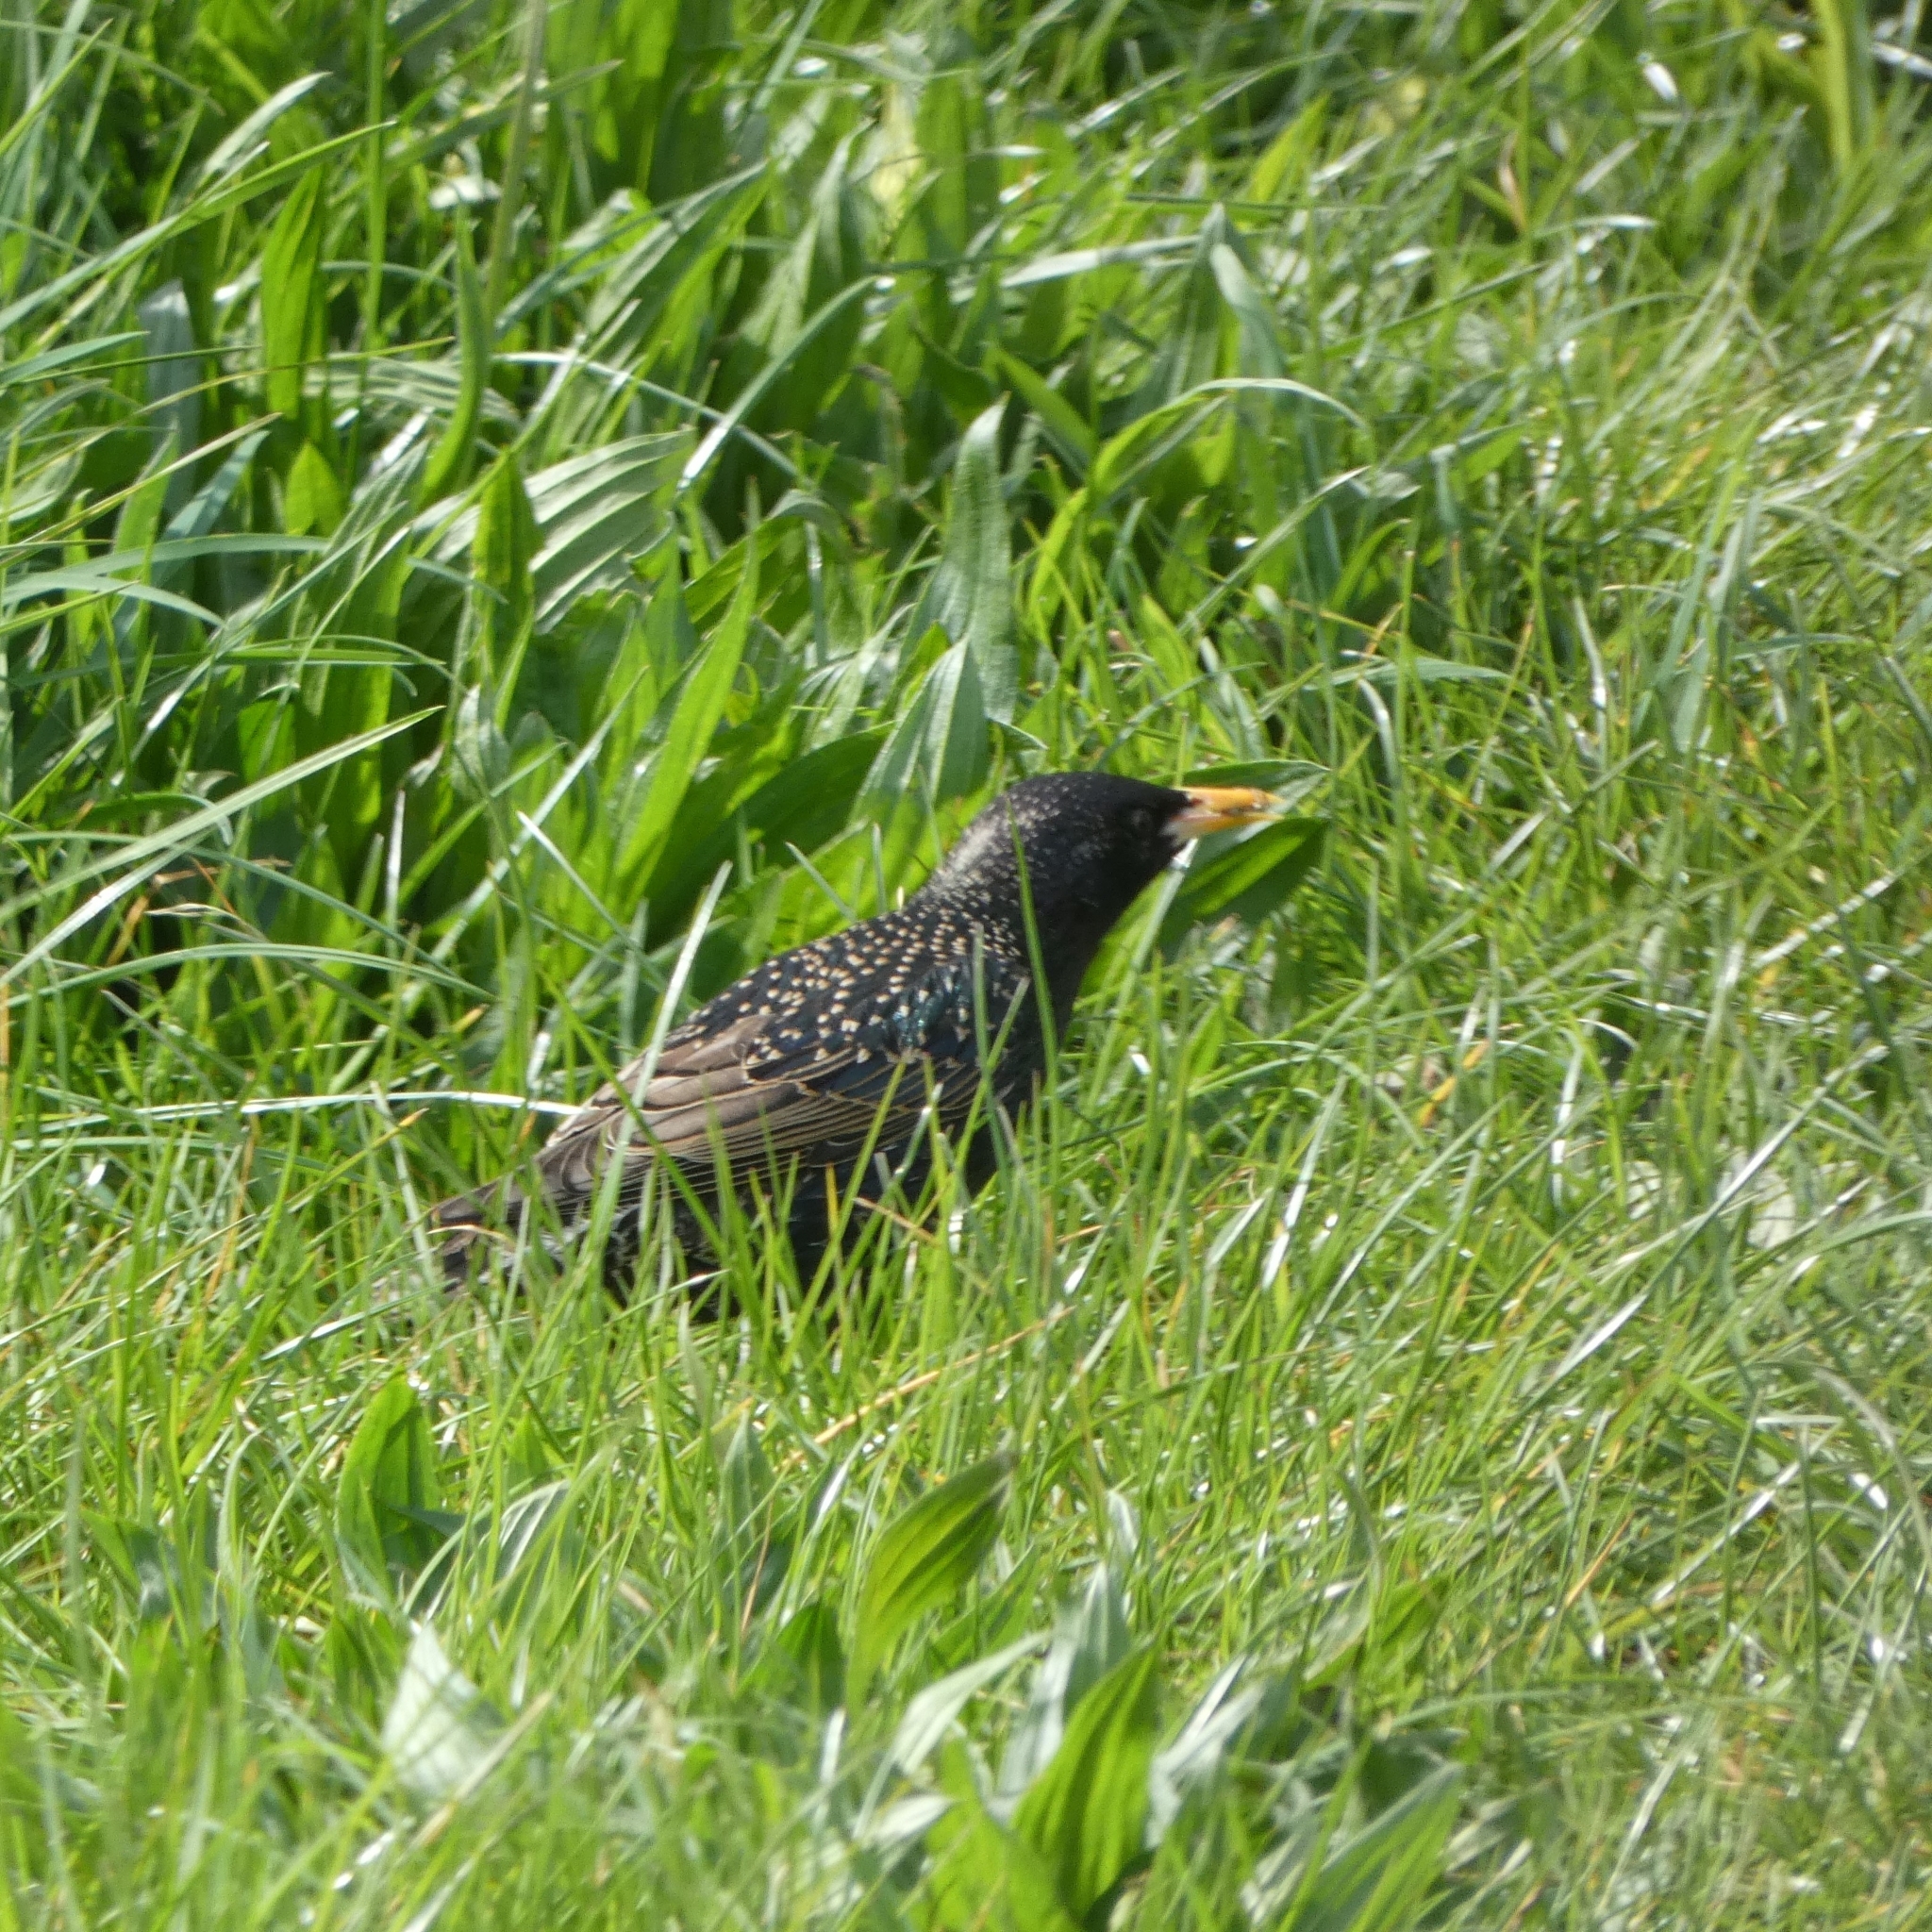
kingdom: Animalia
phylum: Chordata
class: Aves
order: Passeriformes
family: Sturnidae
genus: Sturnus
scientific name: Sturnus vulgaris
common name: Common starling
